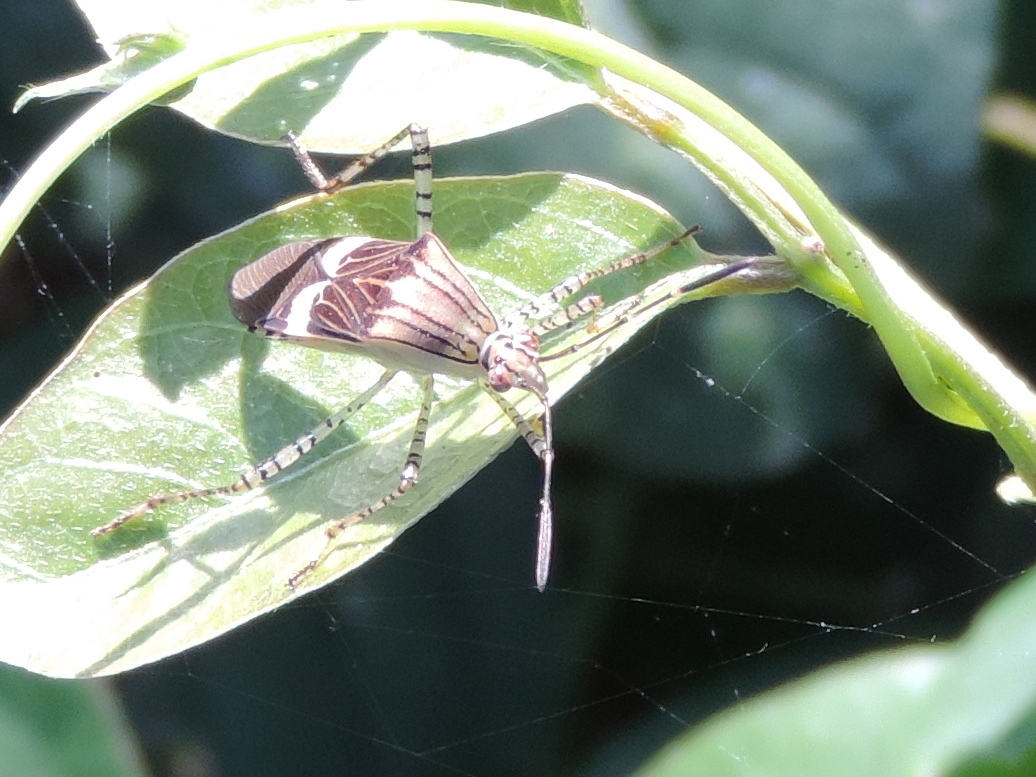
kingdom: Animalia
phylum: Arthropoda
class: Insecta
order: Hemiptera
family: Coreidae
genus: Hypselonotus
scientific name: Hypselonotus lineatus
